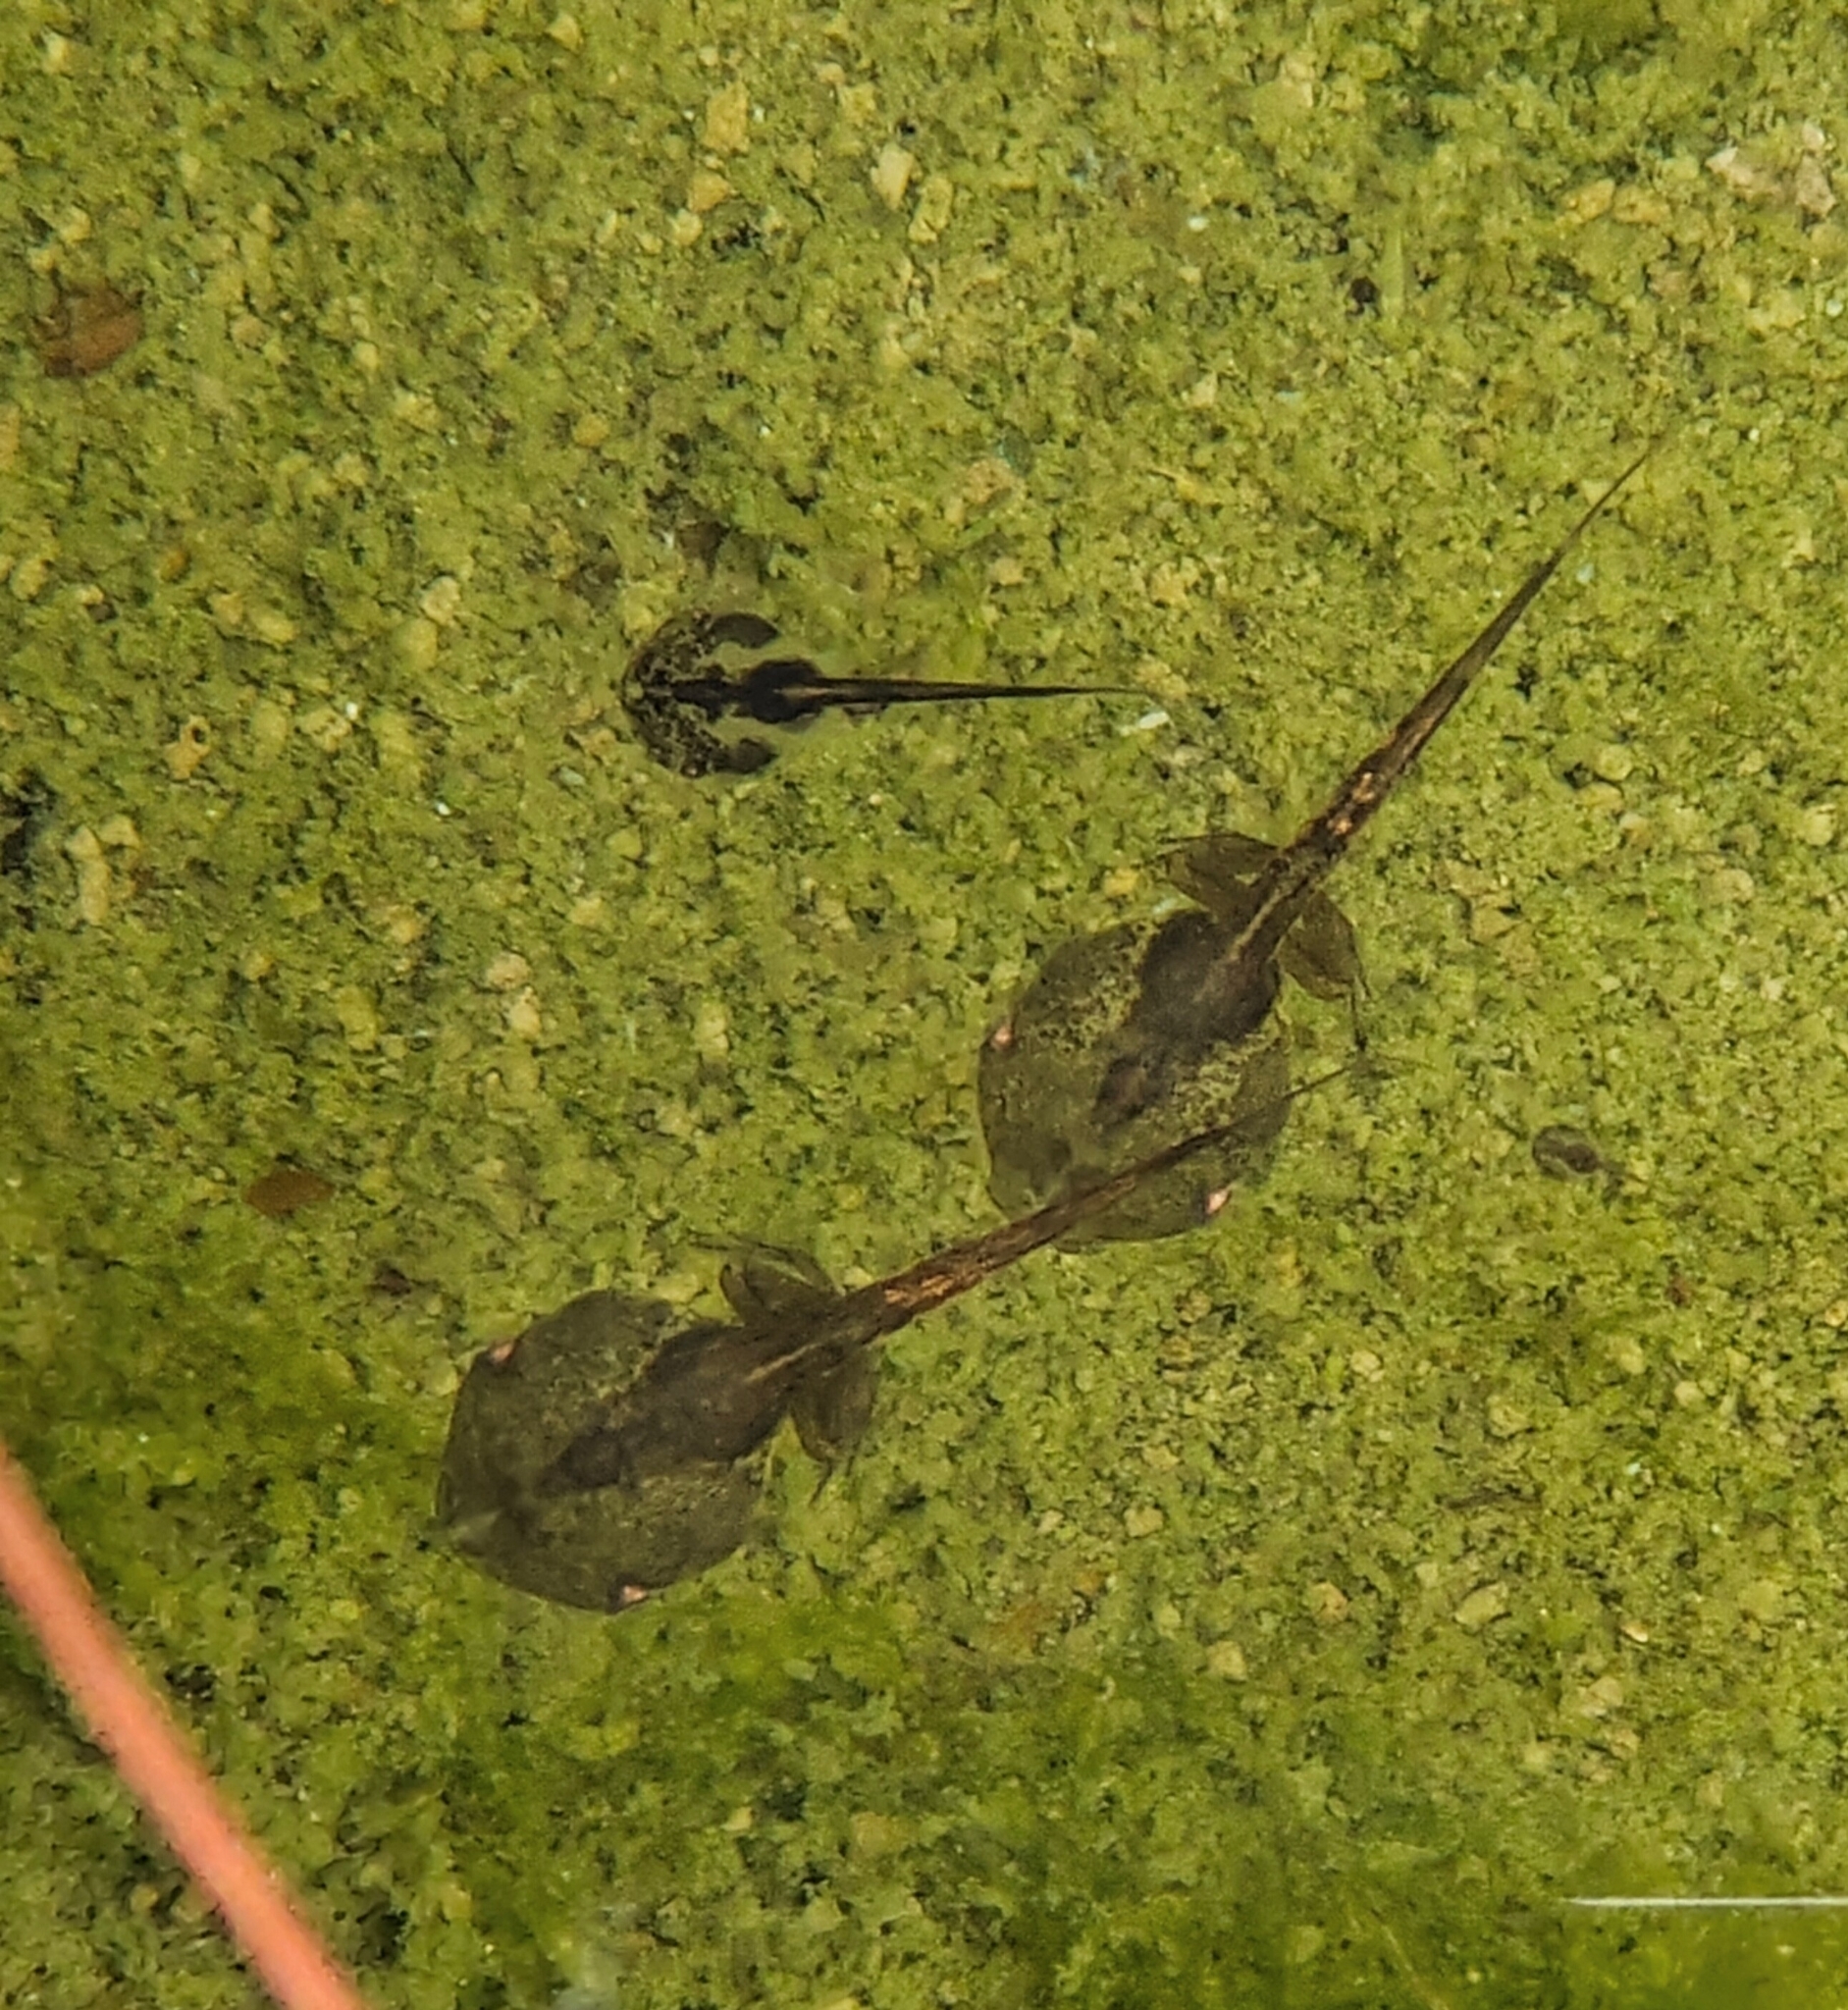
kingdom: Animalia
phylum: Chordata
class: Amphibia
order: Anura
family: Microhylidae
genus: Microhyla
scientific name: Microhyla butleri
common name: Butler’s rice frog,painted chorus frog,tubercled pygmy frog
